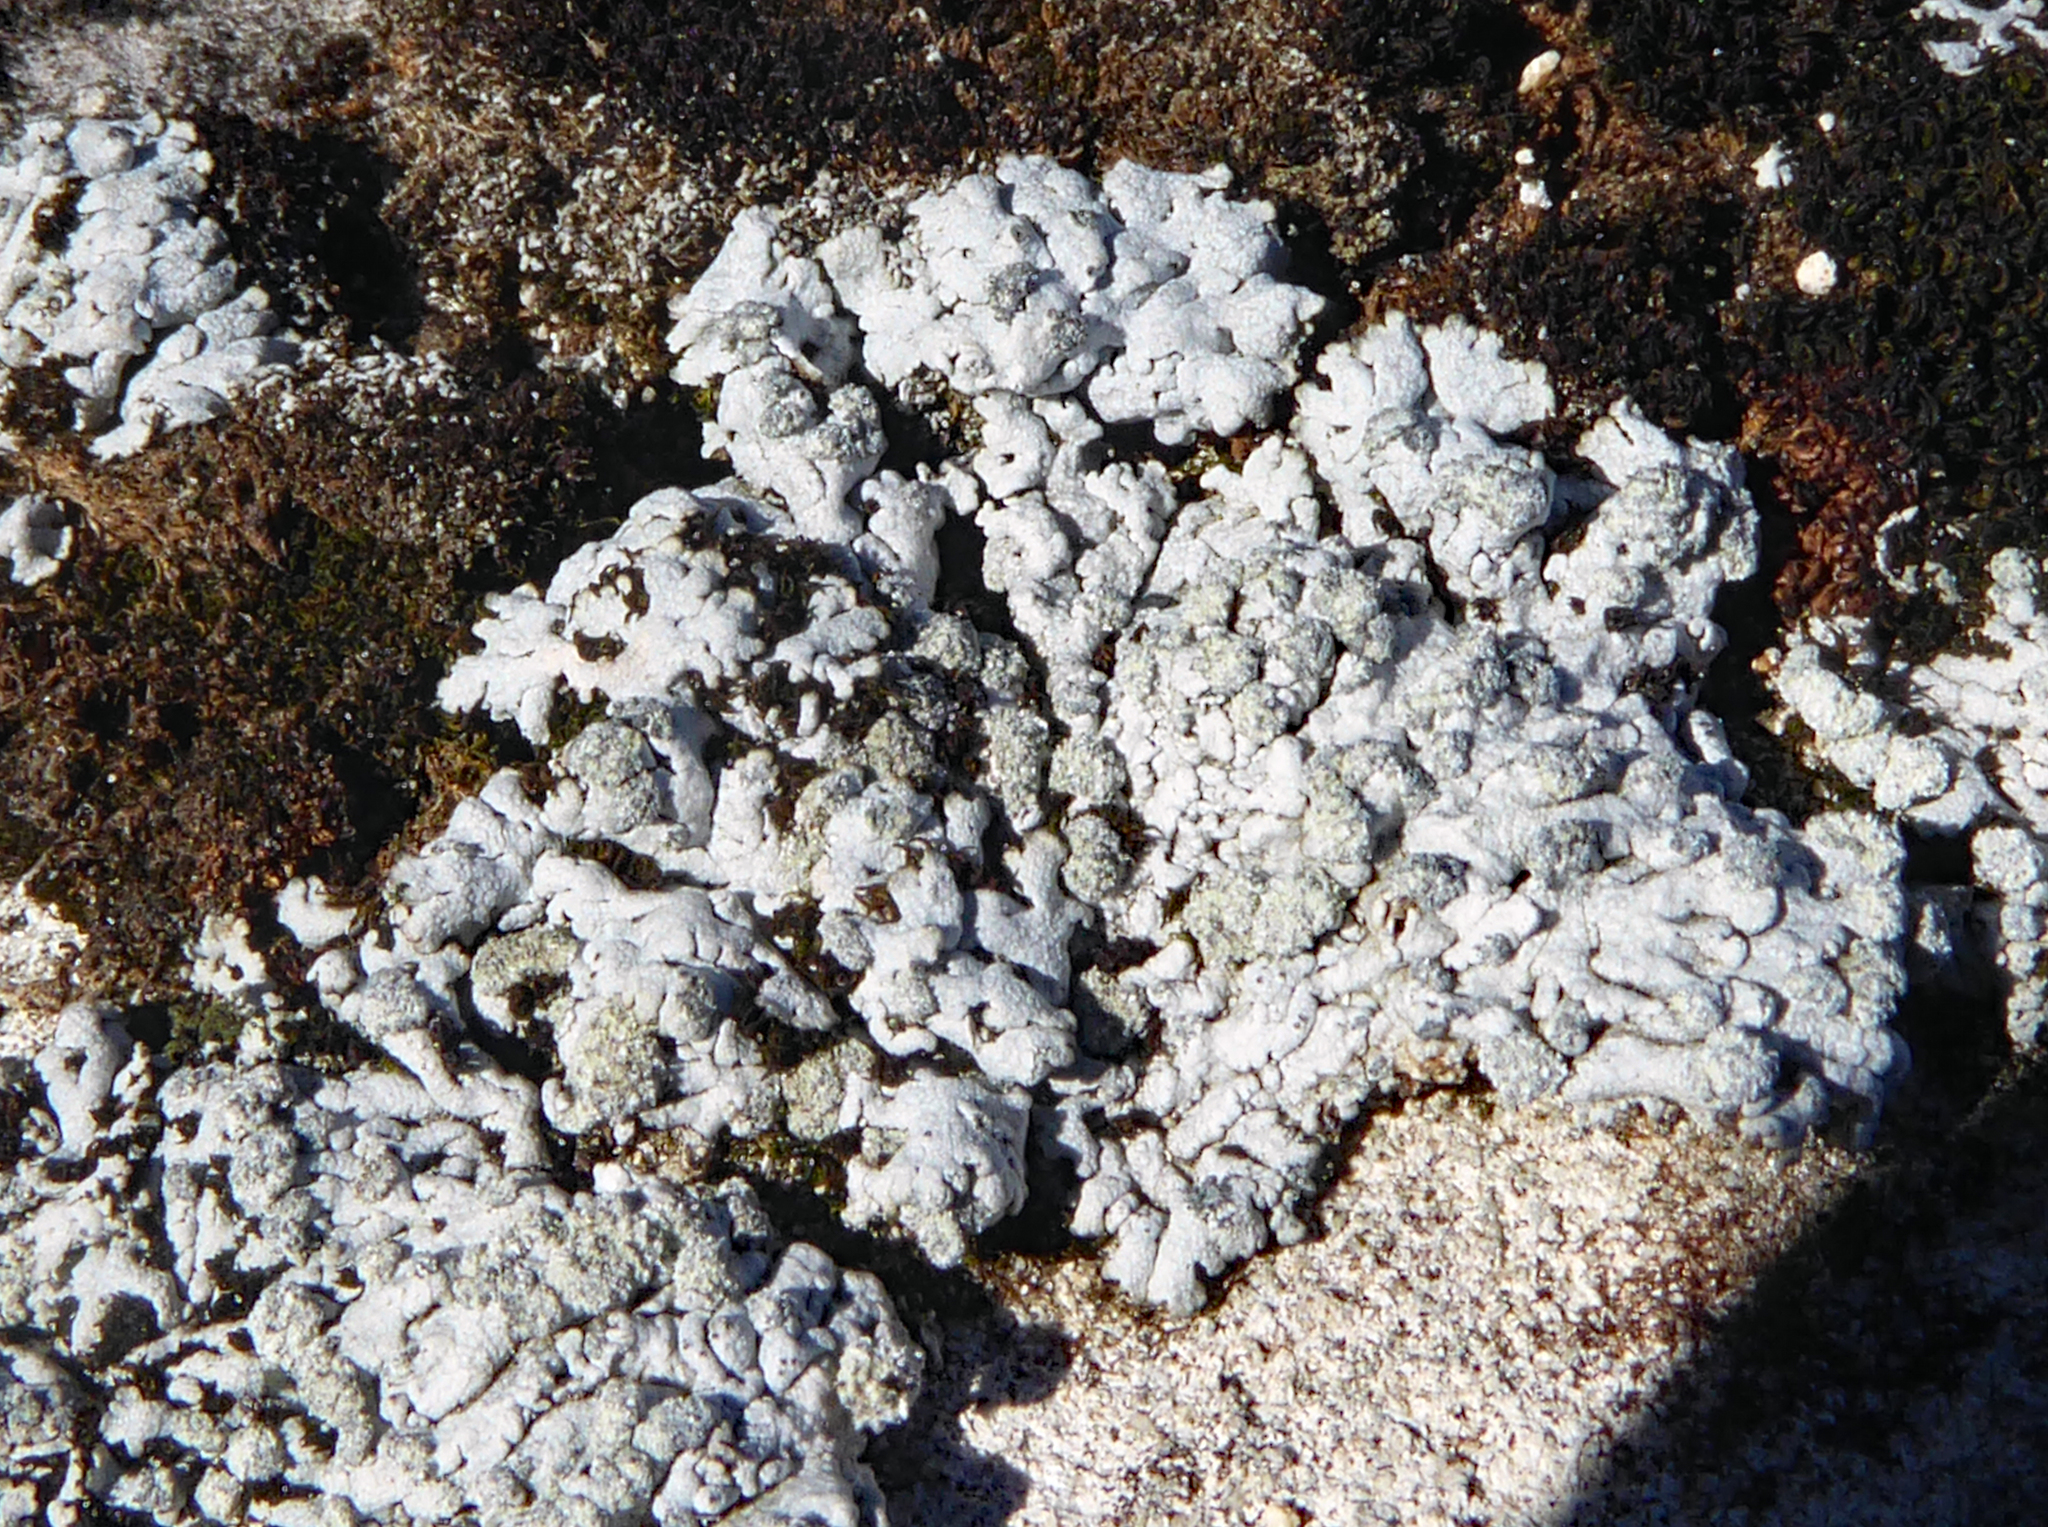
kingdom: Fungi
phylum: Ascomycota
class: Lecanoromycetes
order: Caliciales
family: Physciaceae
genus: Physcia
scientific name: Physcia caesia
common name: Blue-gray rosette lichen
